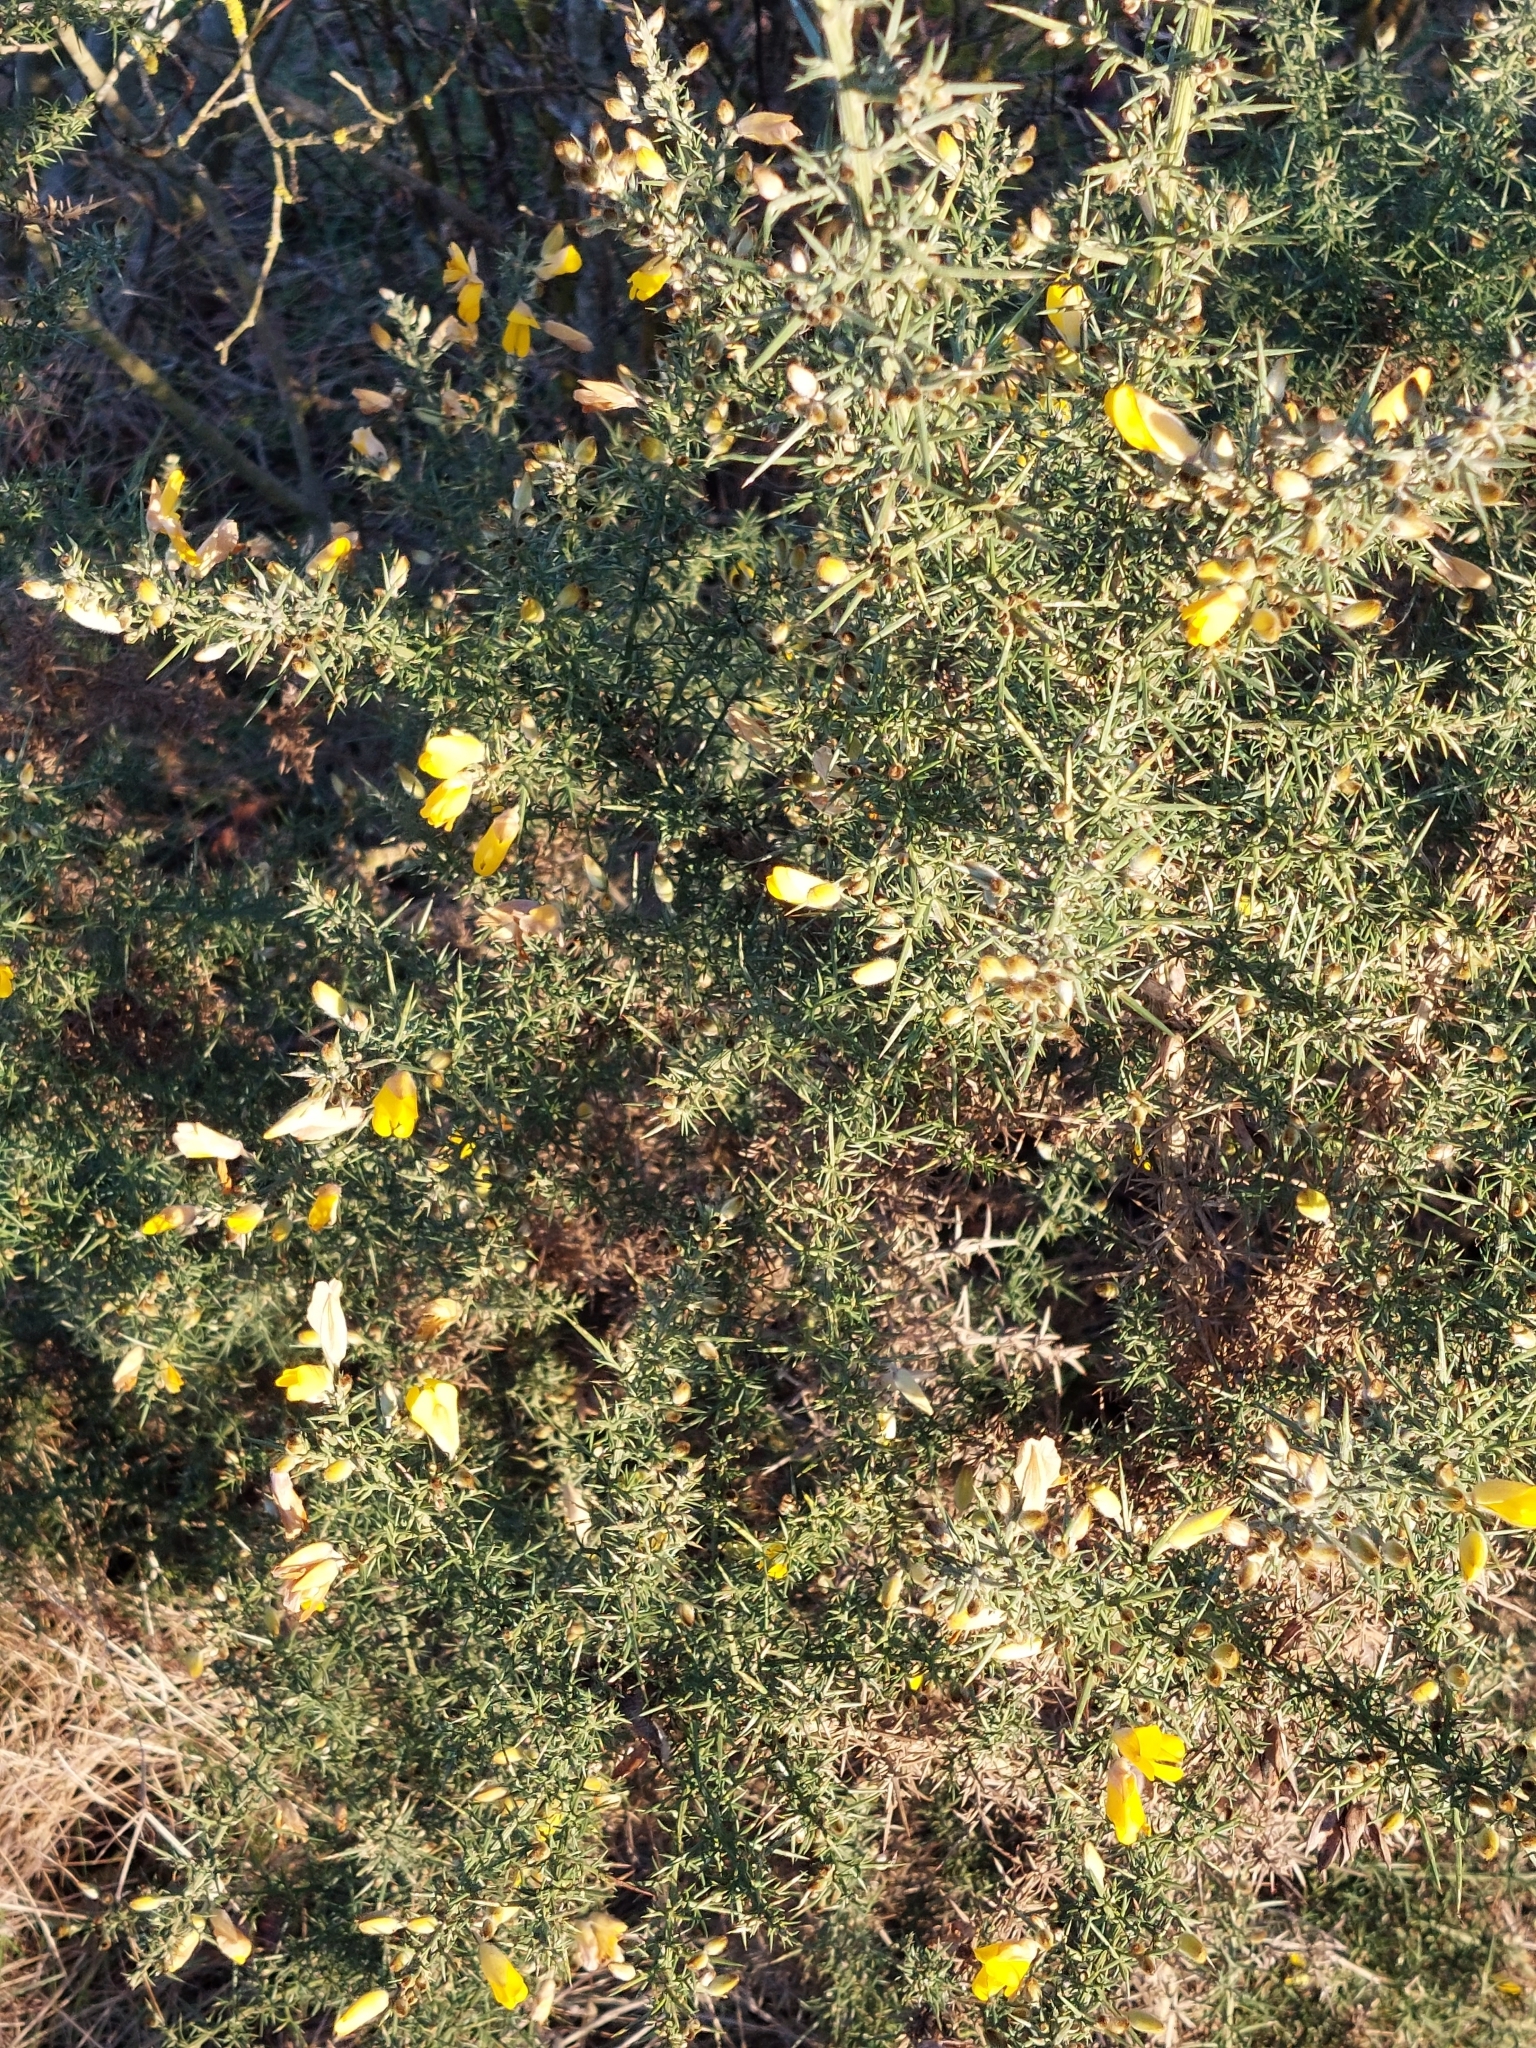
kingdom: Plantae
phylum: Tracheophyta
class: Magnoliopsida
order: Fabales
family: Fabaceae
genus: Ulex
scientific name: Ulex europaeus
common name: Common gorse
